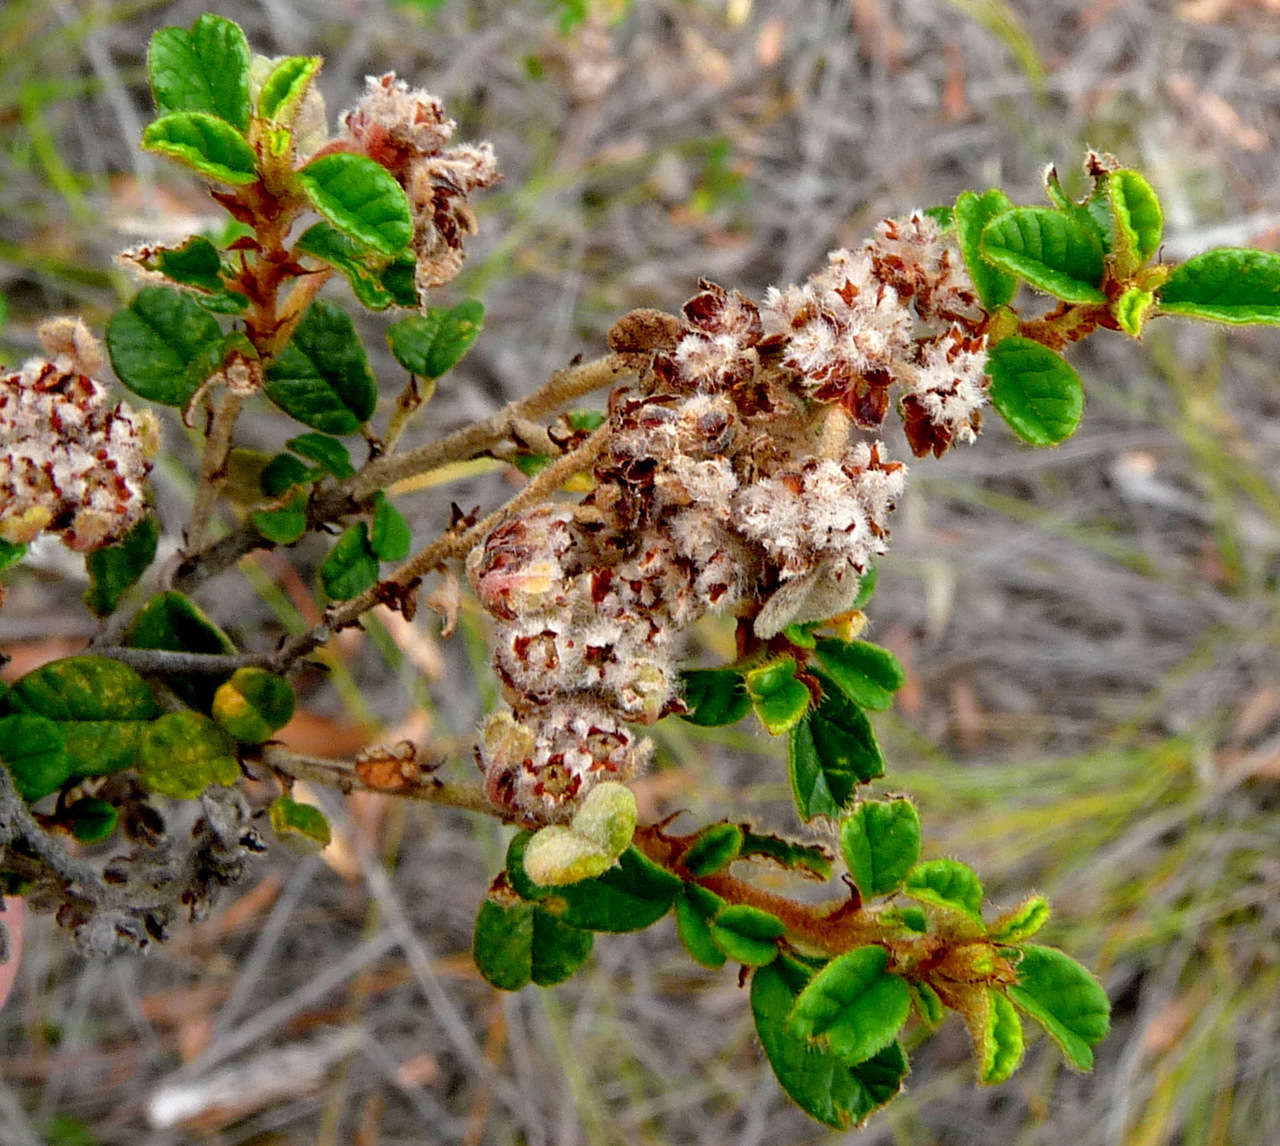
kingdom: Plantae
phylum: Tracheophyta
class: Magnoliopsida
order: Rosales
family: Rhamnaceae
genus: Spyridium
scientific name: Spyridium parvifolium
